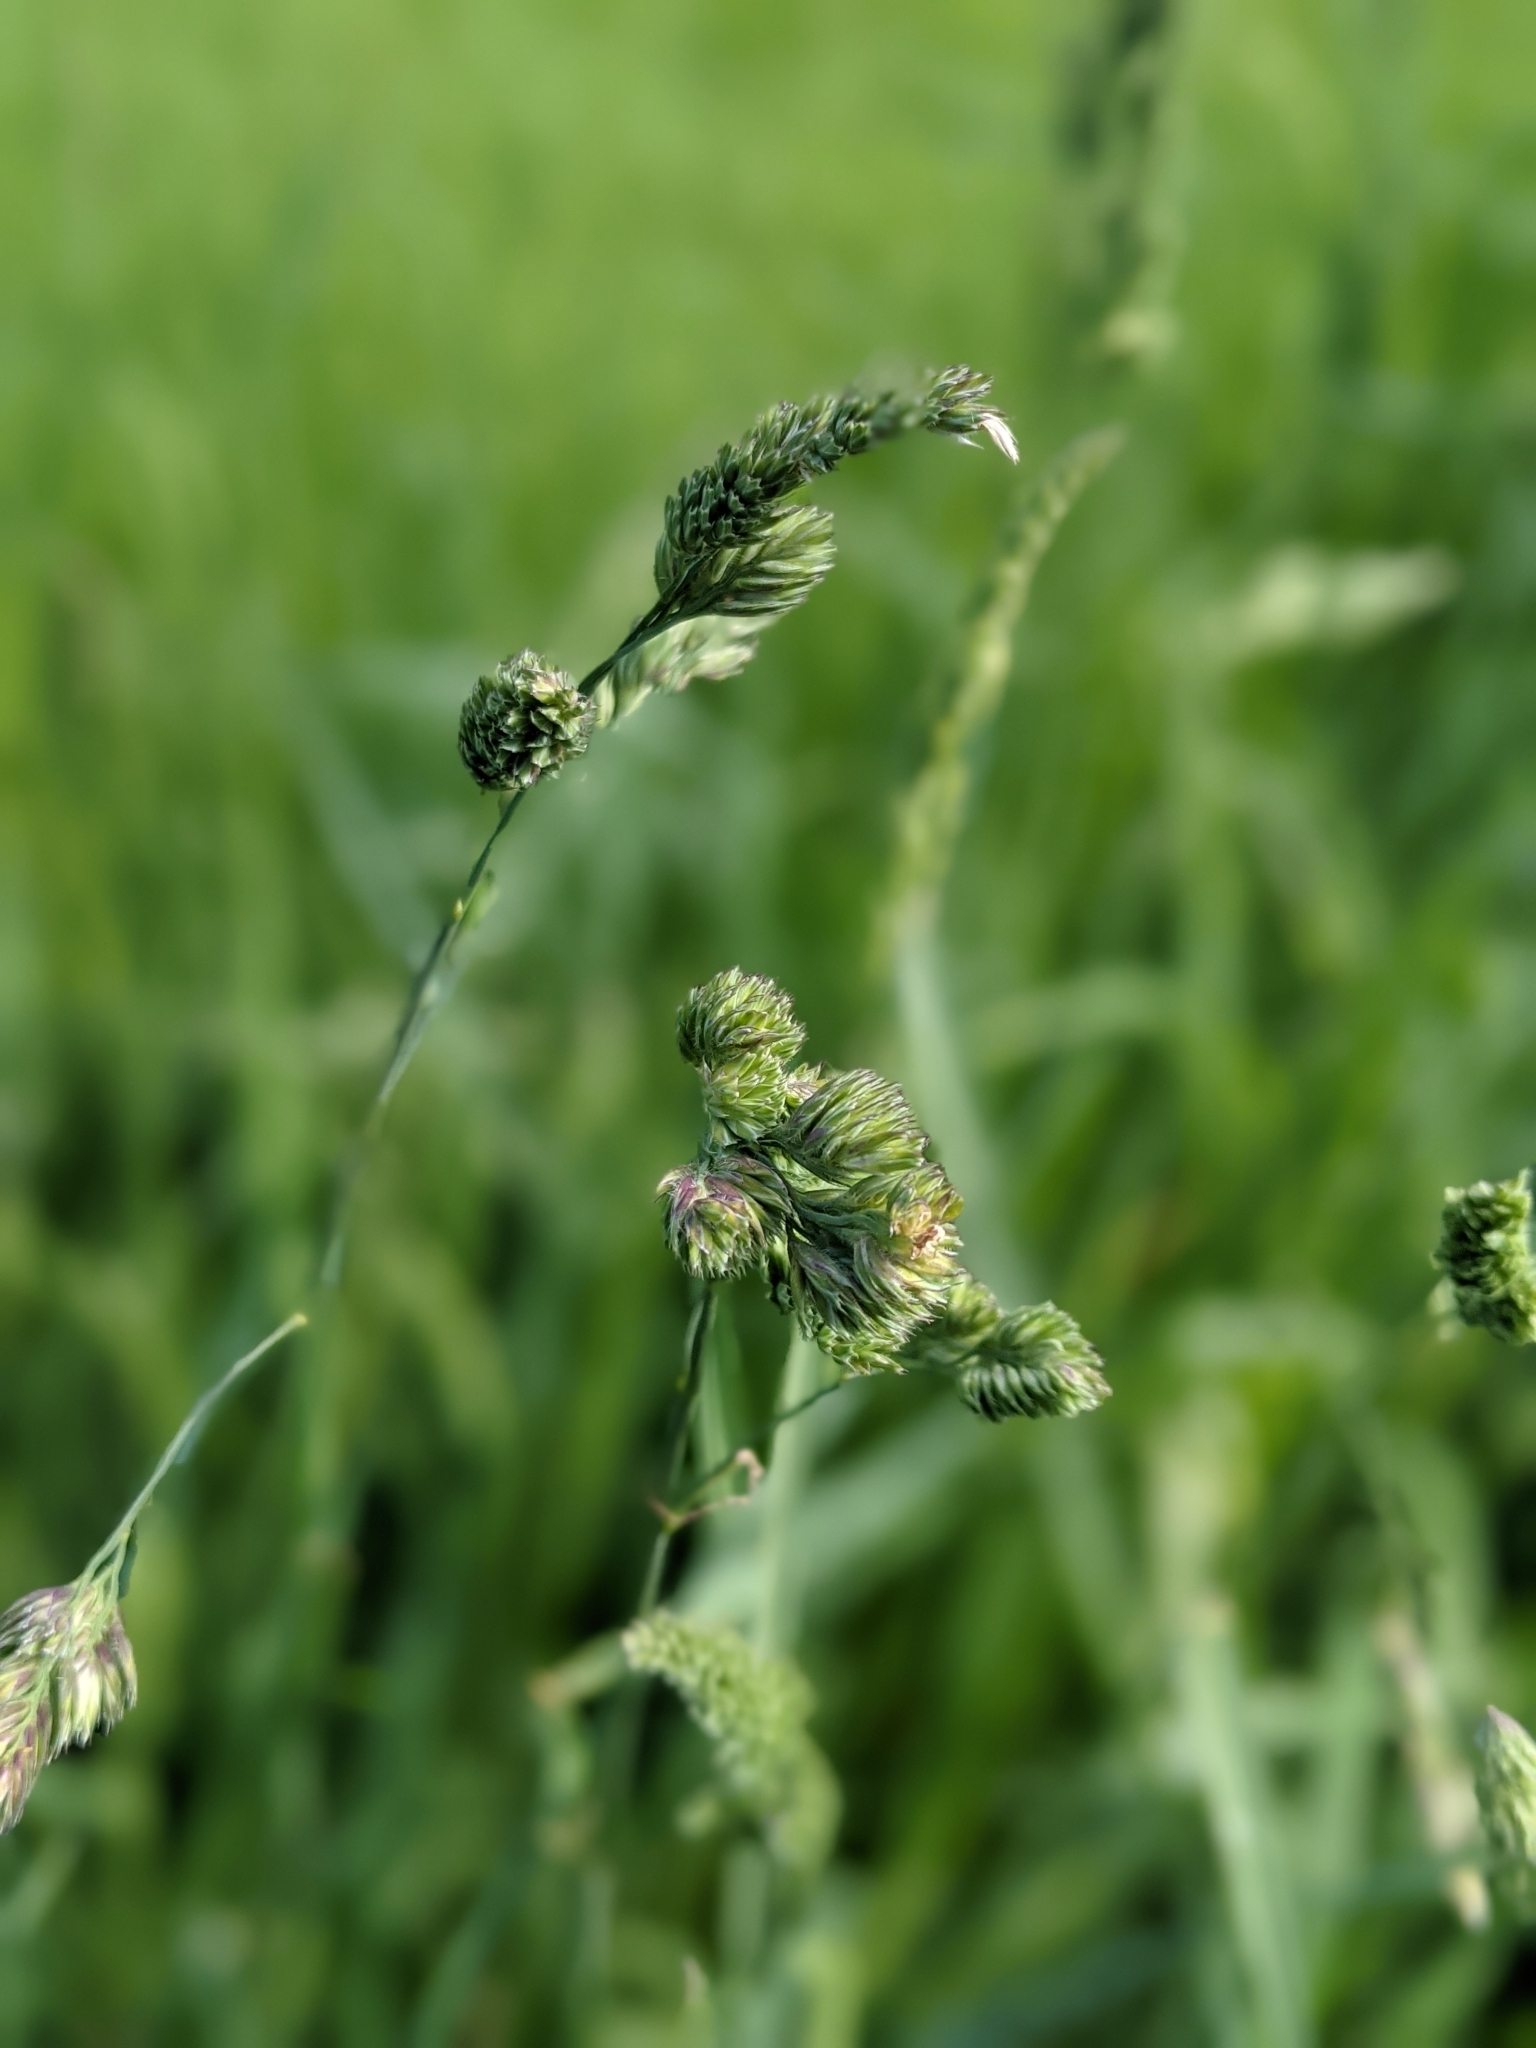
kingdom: Plantae
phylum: Tracheophyta
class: Liliopsida
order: Poales
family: Poaceae
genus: Dactylis
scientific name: Dactylis glomerata
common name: Orchardgrass
